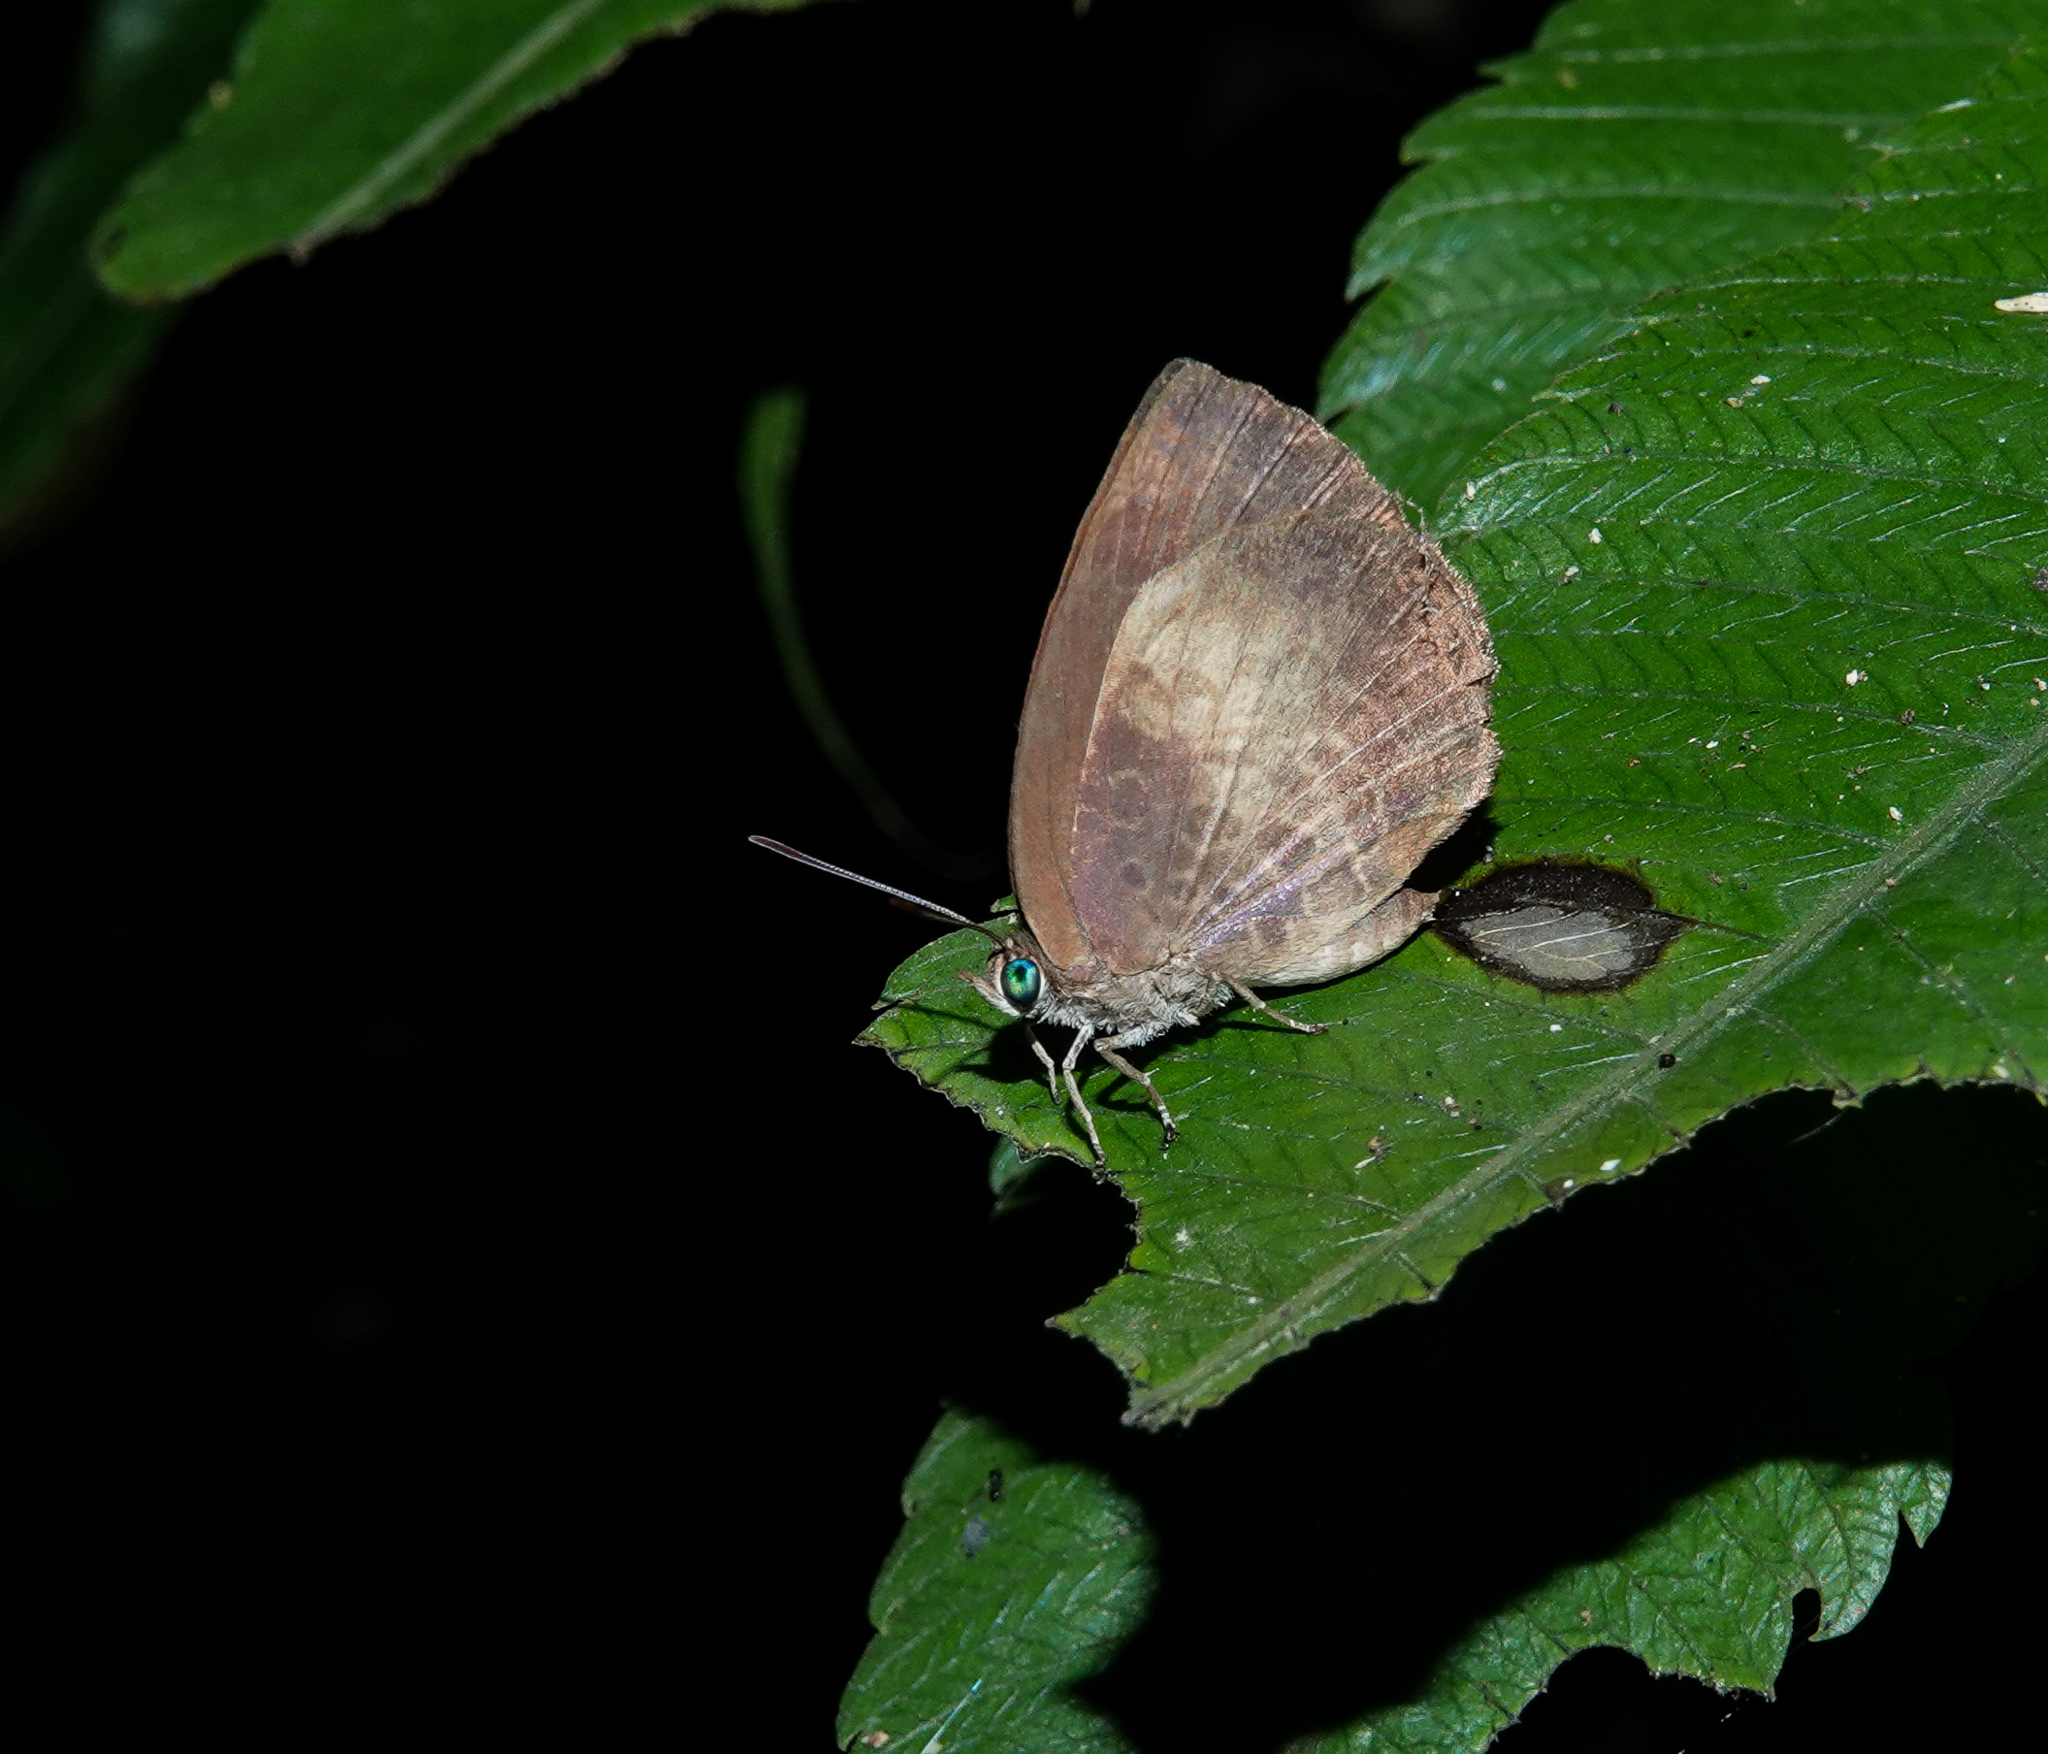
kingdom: Animalia
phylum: Arthropoda
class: Insecta
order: Lepidoptera
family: Lycaenidae
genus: Arhopala
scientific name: Arhopala perimuta
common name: Yellowdisc oakblue
